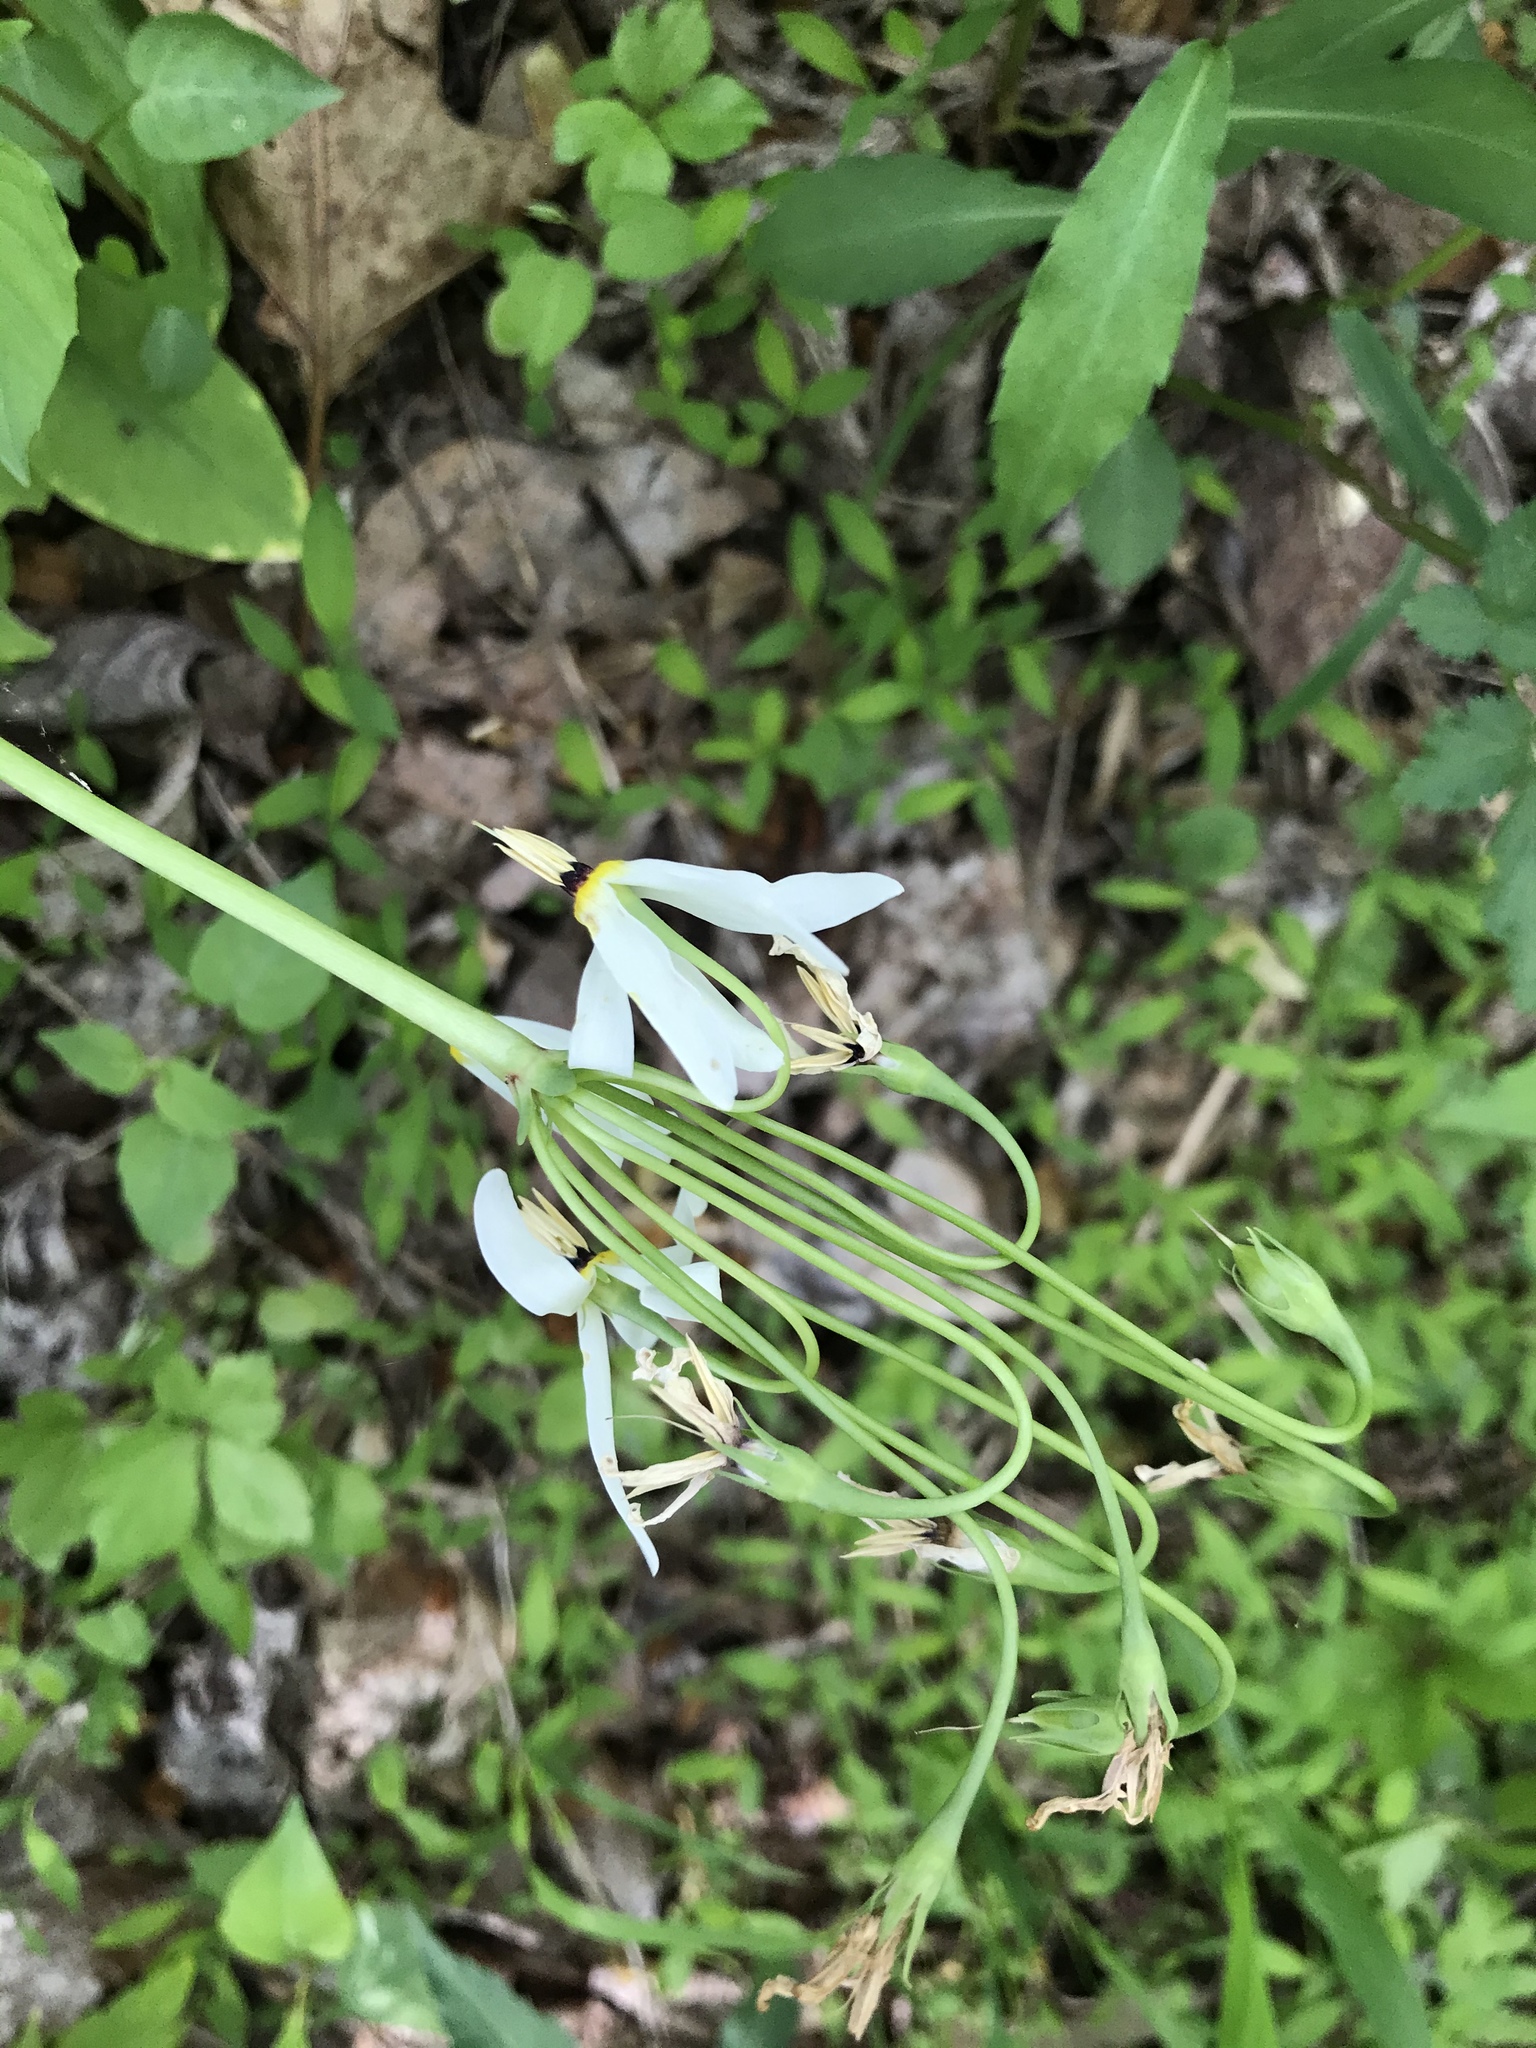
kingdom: Plantae
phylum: Tracheophyta
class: Magnoliopsida
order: Ericales
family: Primulaceae
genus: Dodecatheon
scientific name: Dodecatheon meadia
